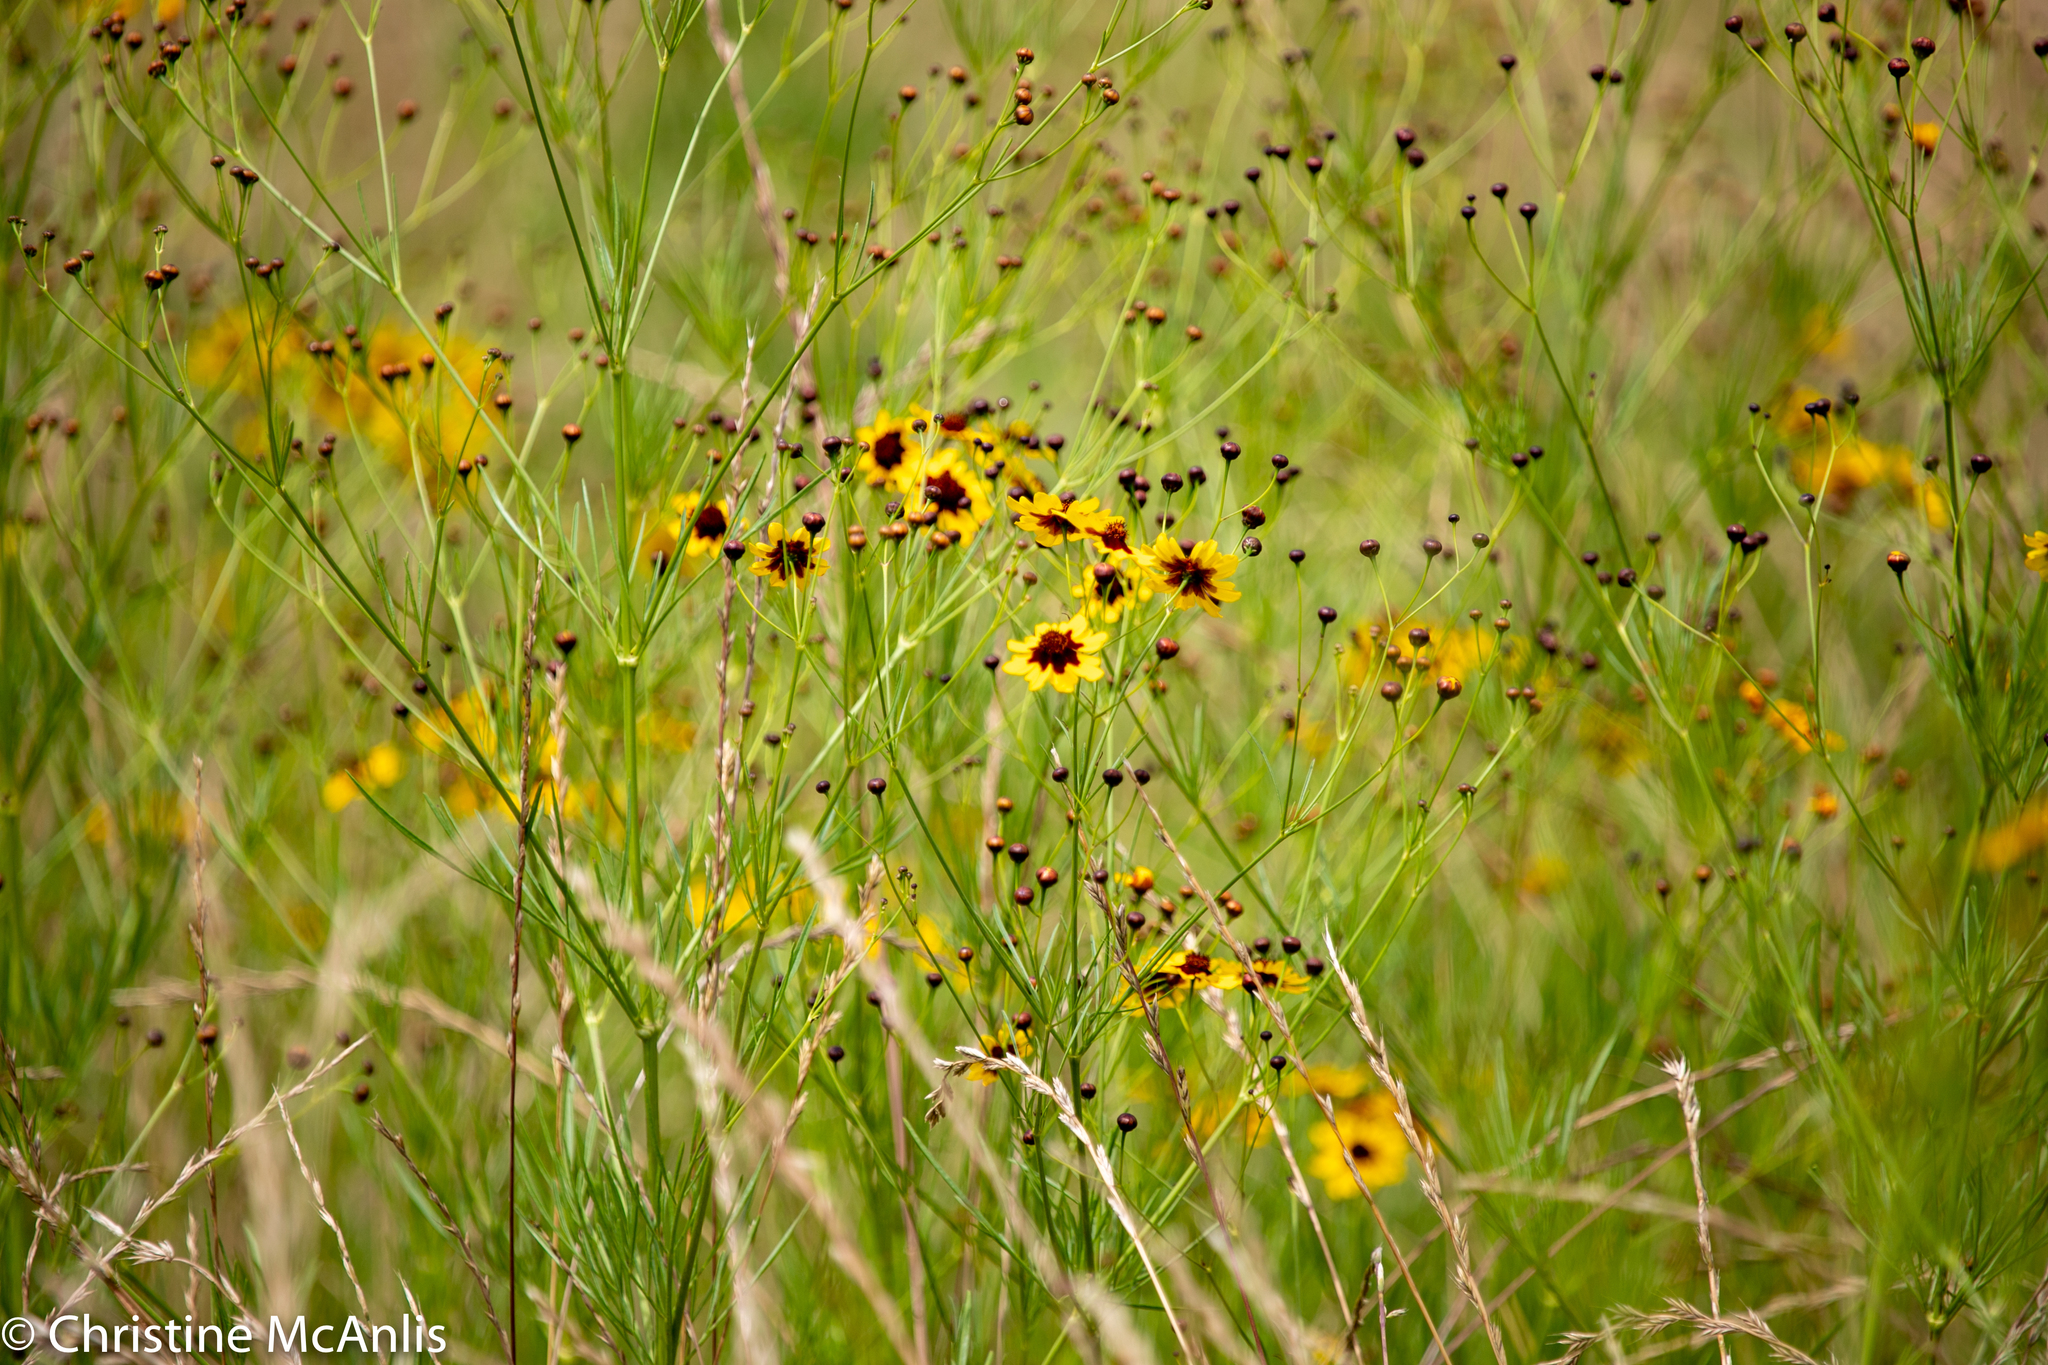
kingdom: Plantae
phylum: Tracheophyta
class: Magnoliopsida
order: Asterales
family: Asteraceae
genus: Coreopsis
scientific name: Coreopsis tinctoria
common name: Garden tickseed
